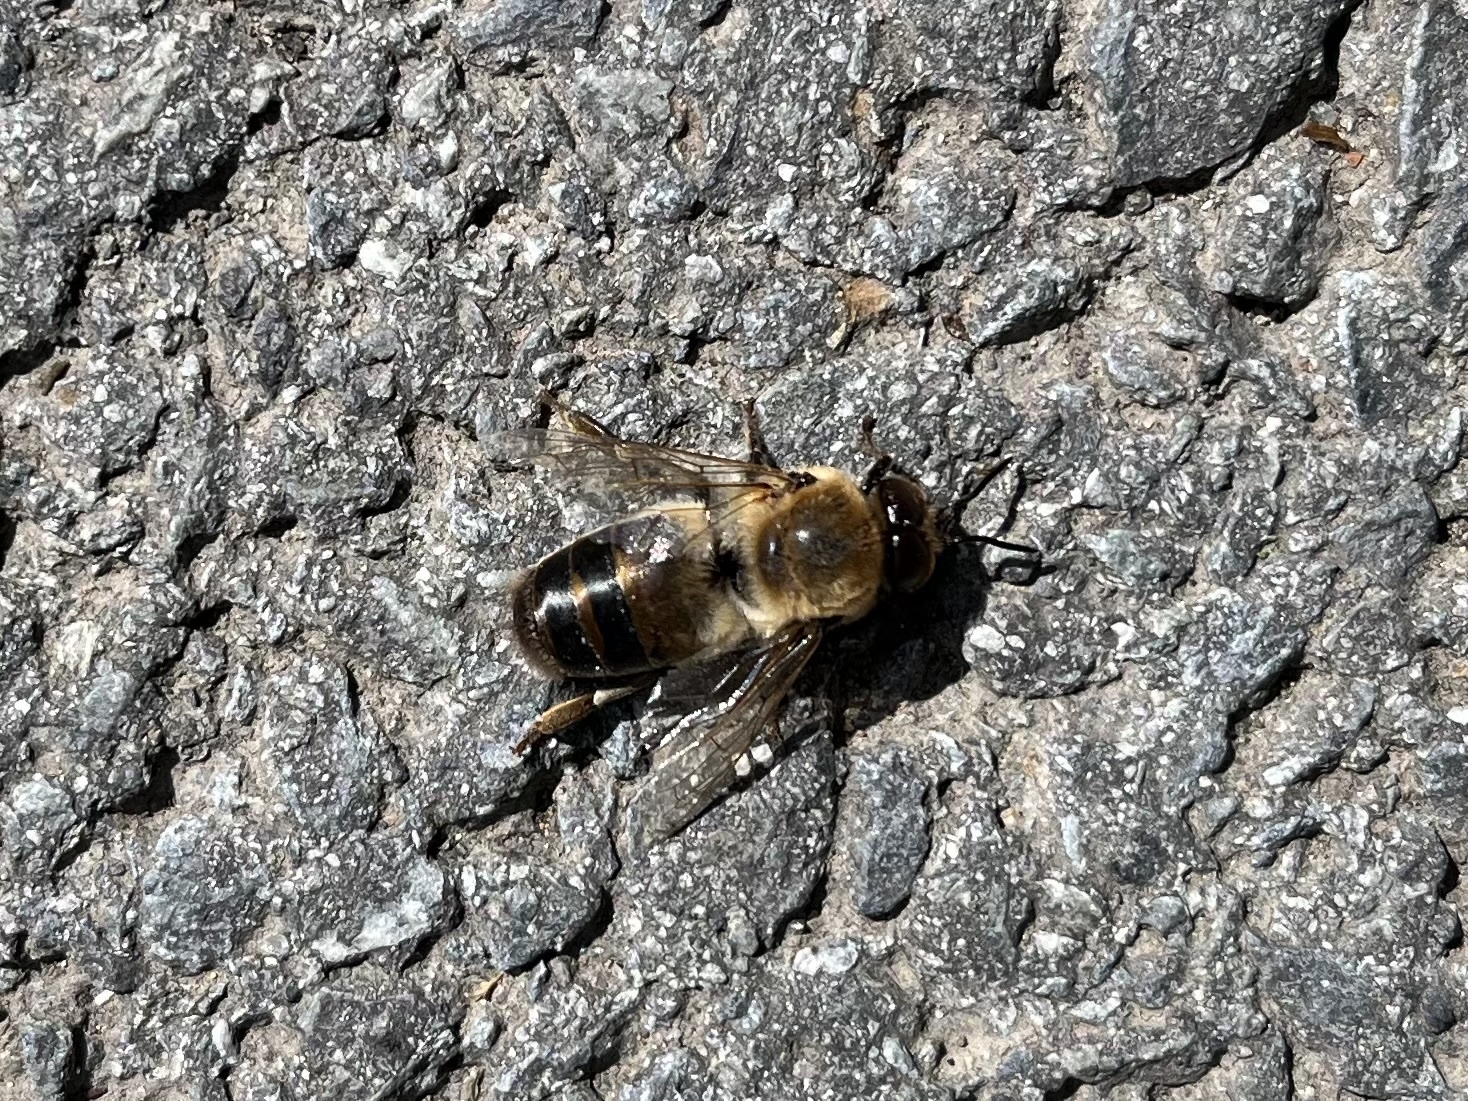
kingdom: Animalia
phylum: Arthropoda
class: Insecta
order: Hymenoptera
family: Apidae
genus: Apis
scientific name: Apis mellifera
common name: Honey bee
